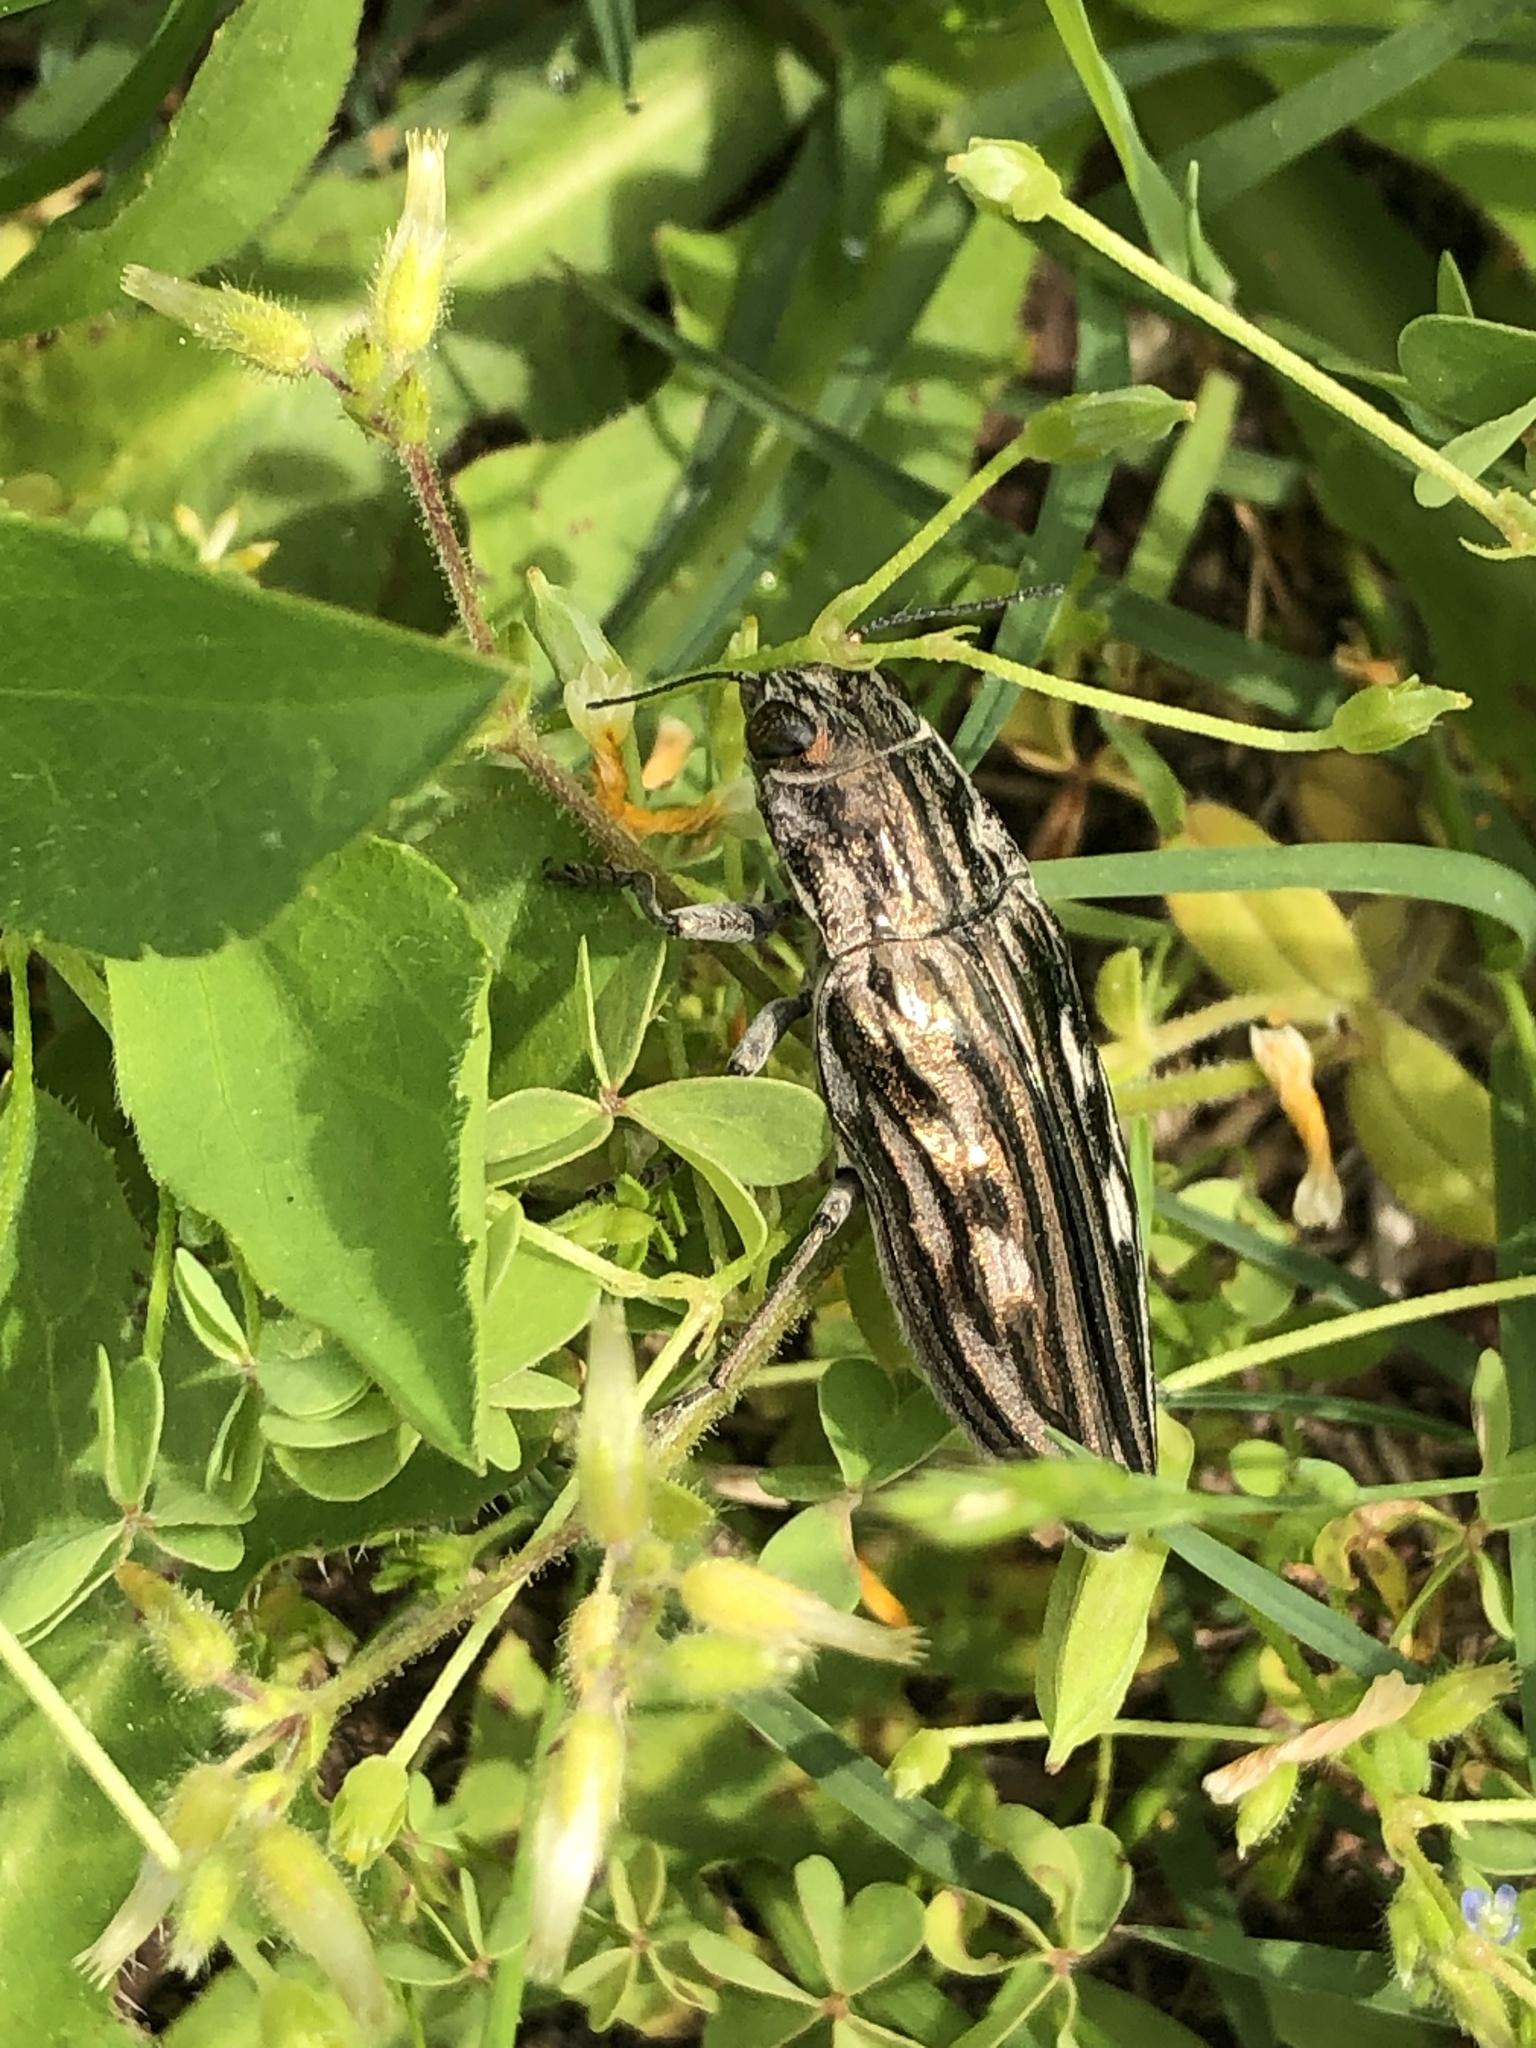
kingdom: Animalia
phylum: Arthropoda
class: Insecta
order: Coleoptera
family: Buprestidae
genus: Chalcophora
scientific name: Chalcophora georgiana
